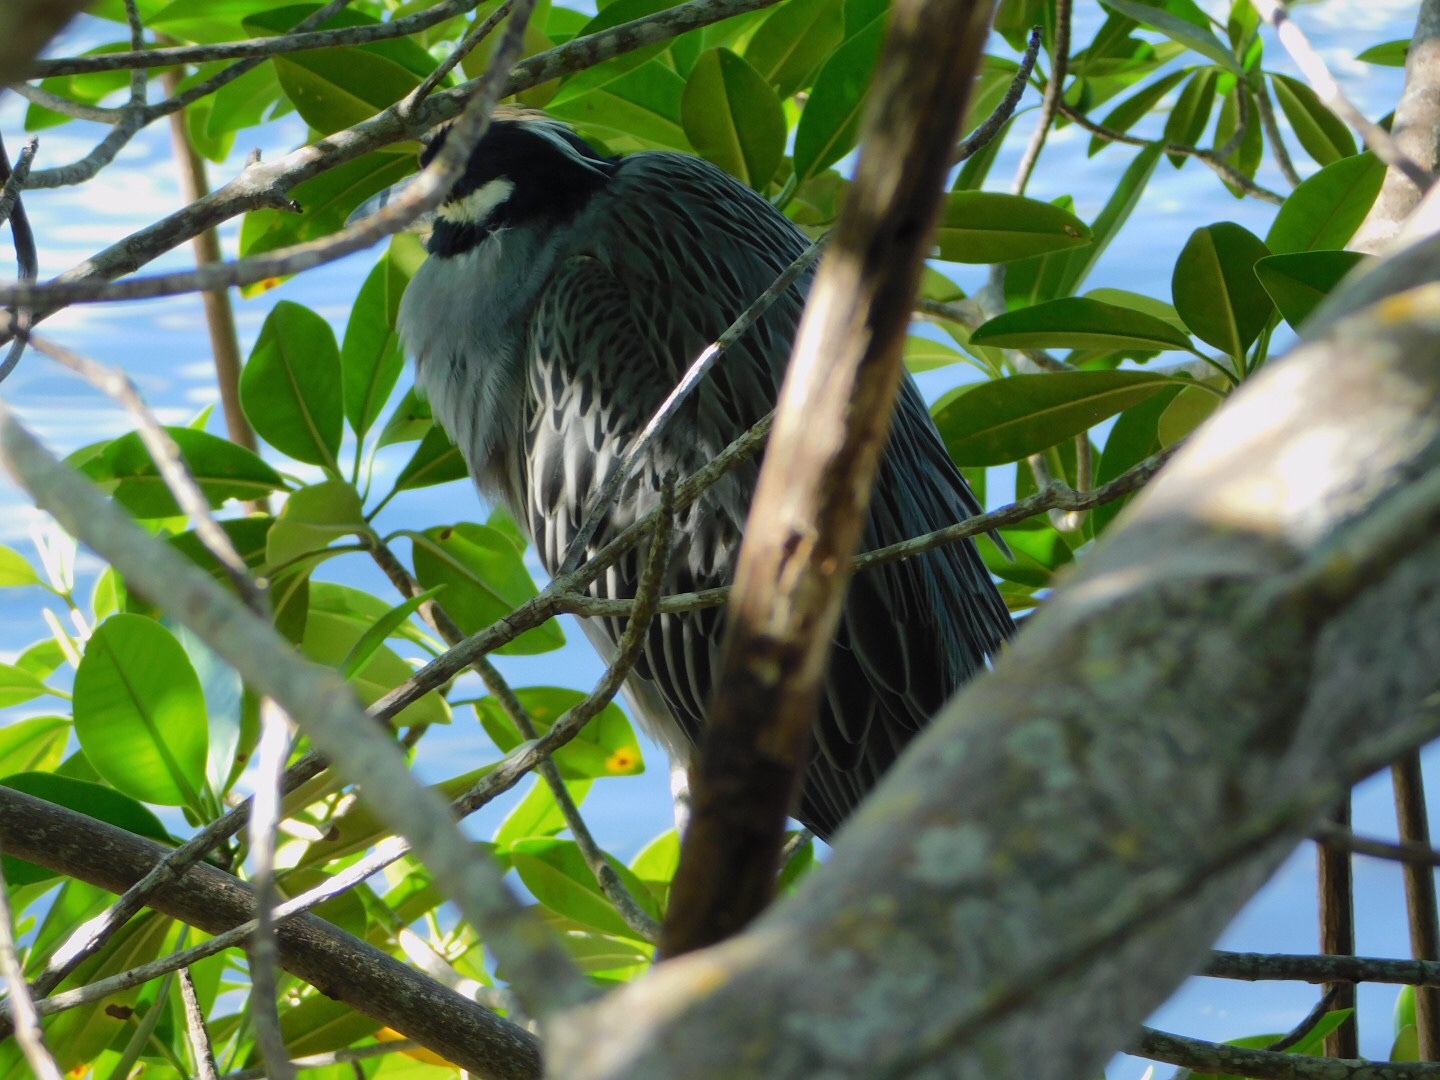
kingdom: Animalia
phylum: Chordata
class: Aves
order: Pelecaniformes
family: Ardeidae
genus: Nyctanassa
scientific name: Nyctanassa violacea
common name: Yellow-crowned night heron
